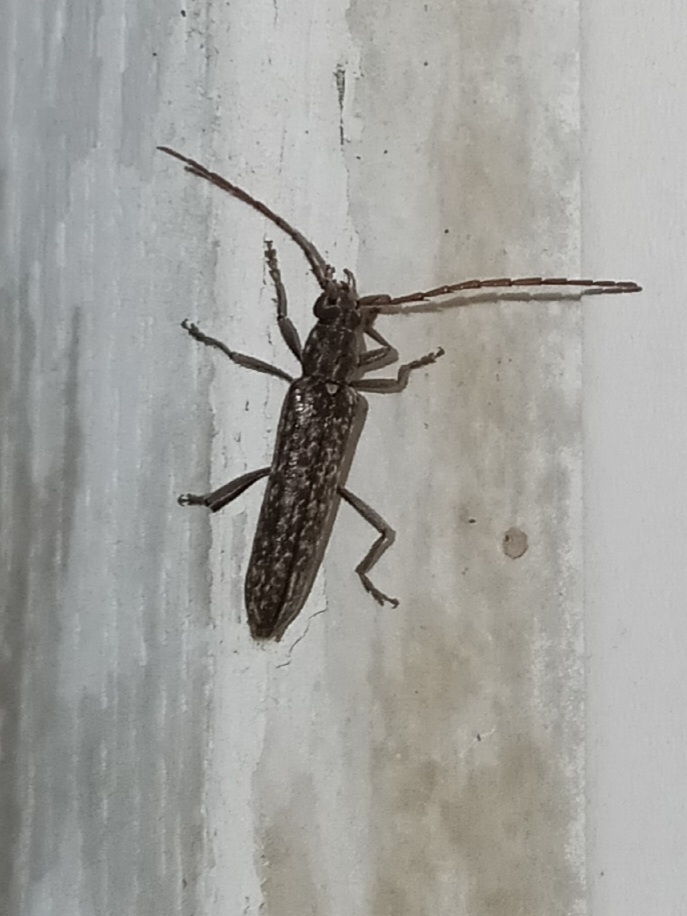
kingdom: Animalia
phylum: Arthropoda
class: Insecta
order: Coleoptera
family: Cerambycidae
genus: Anelaphus
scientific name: Anelaphus villosus
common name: Twig pruner
